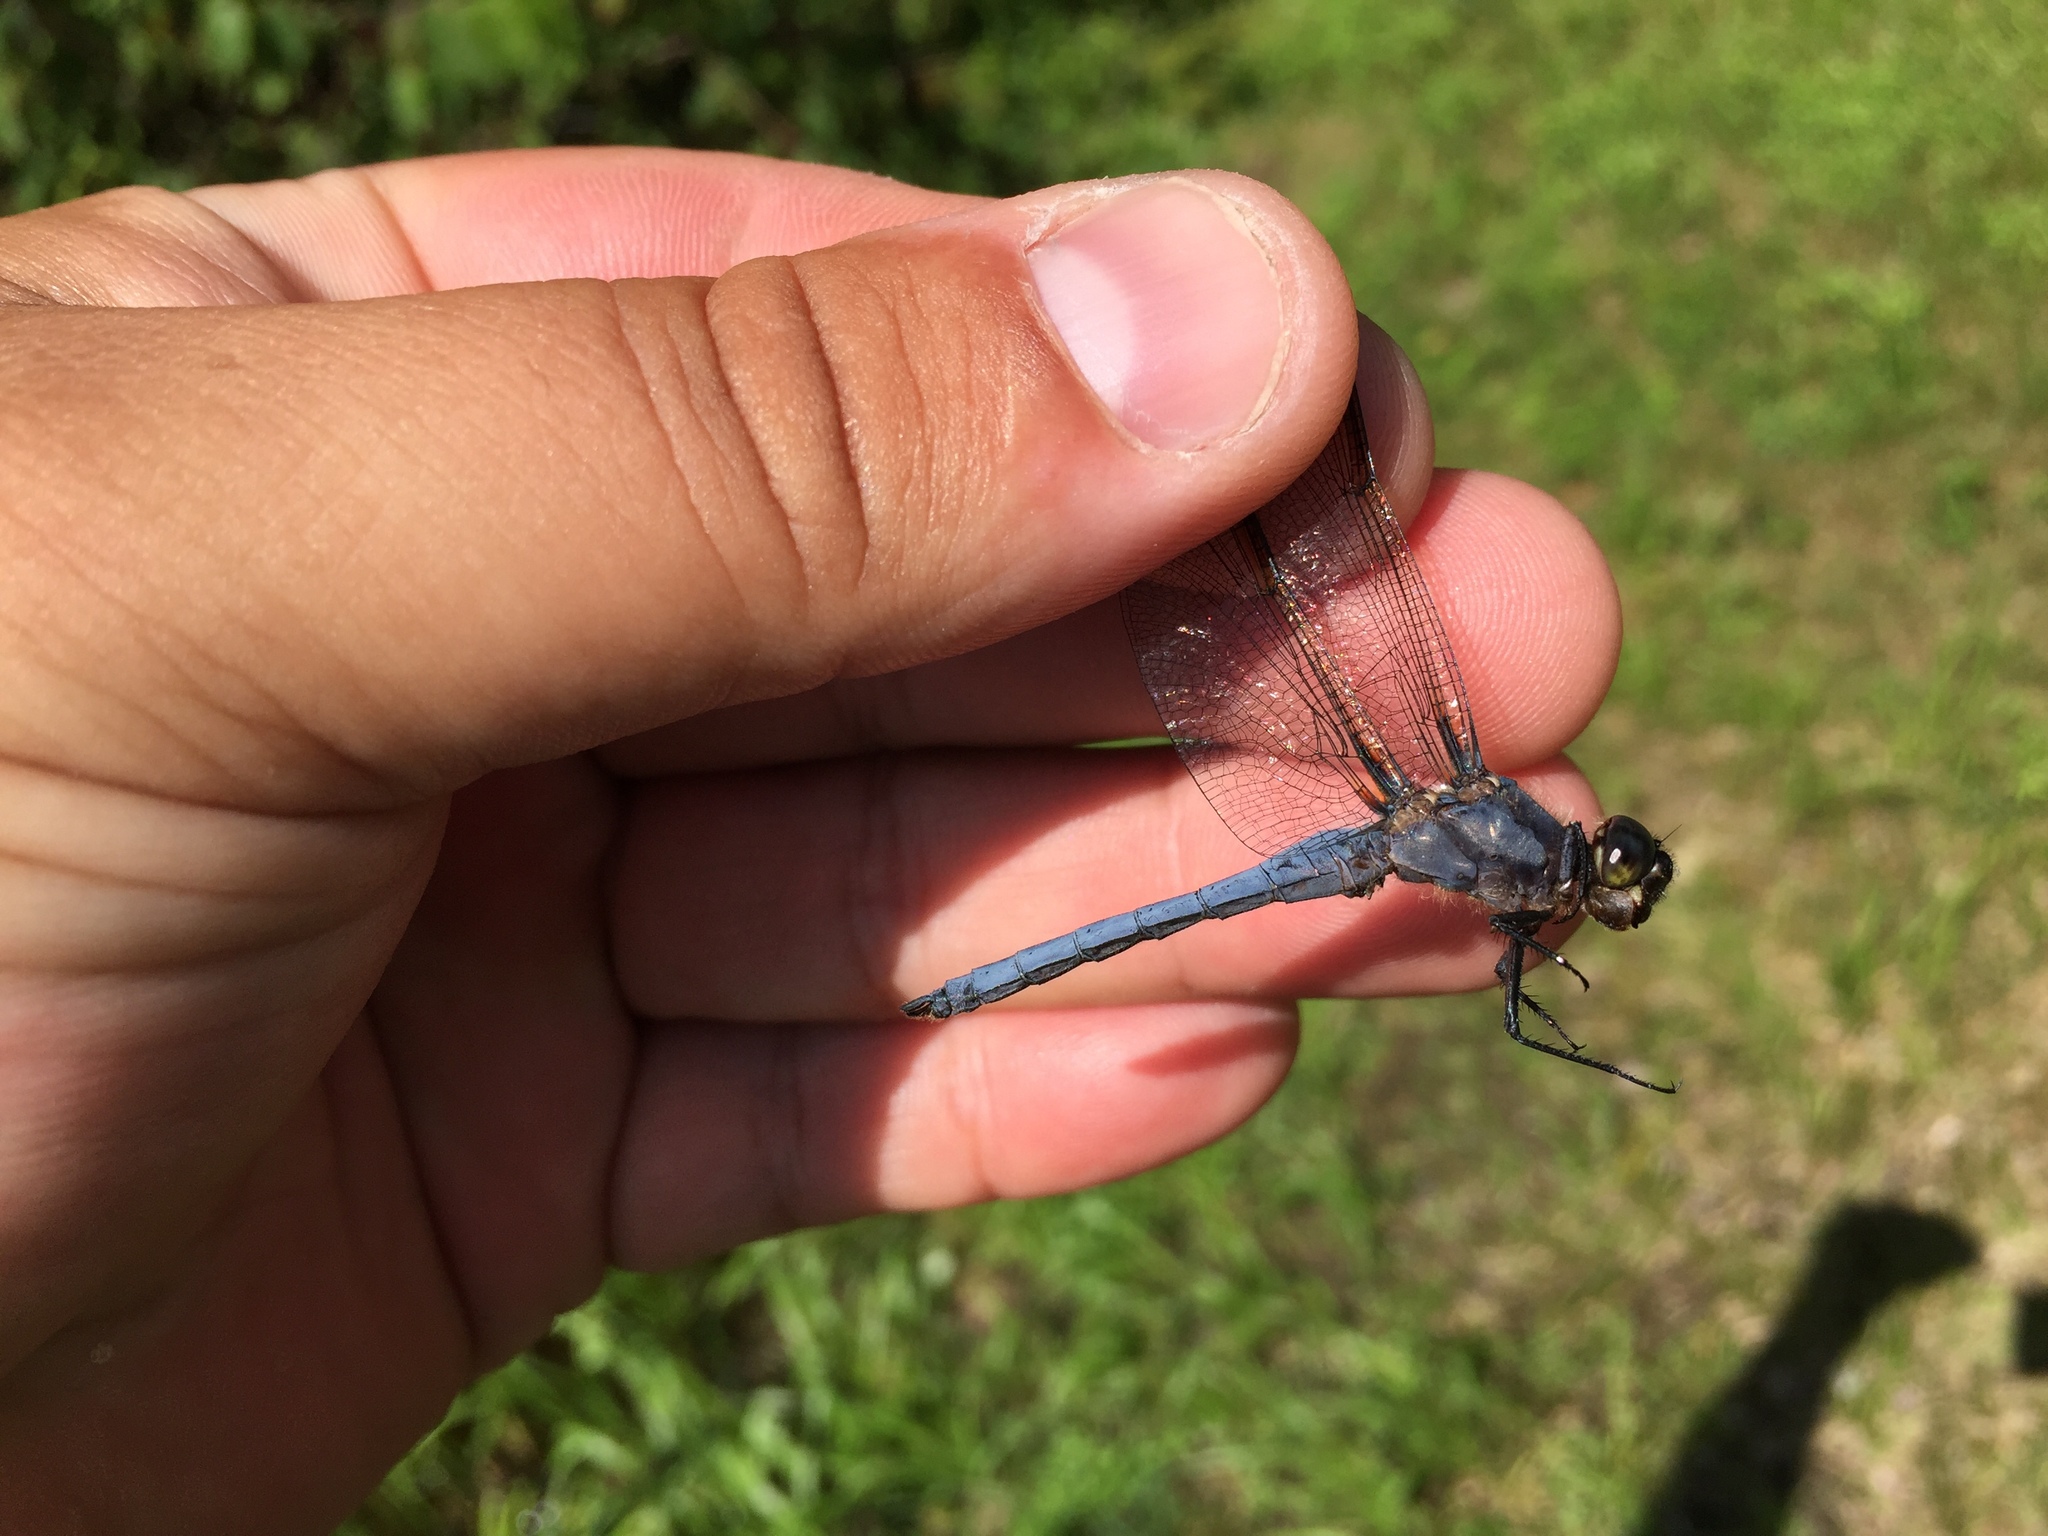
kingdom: Animalia
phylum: Arthropoda
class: Insecta
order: Odonata
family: Libellulidae
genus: Libellula
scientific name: Libellula cyanea
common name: Spangled skimmer
